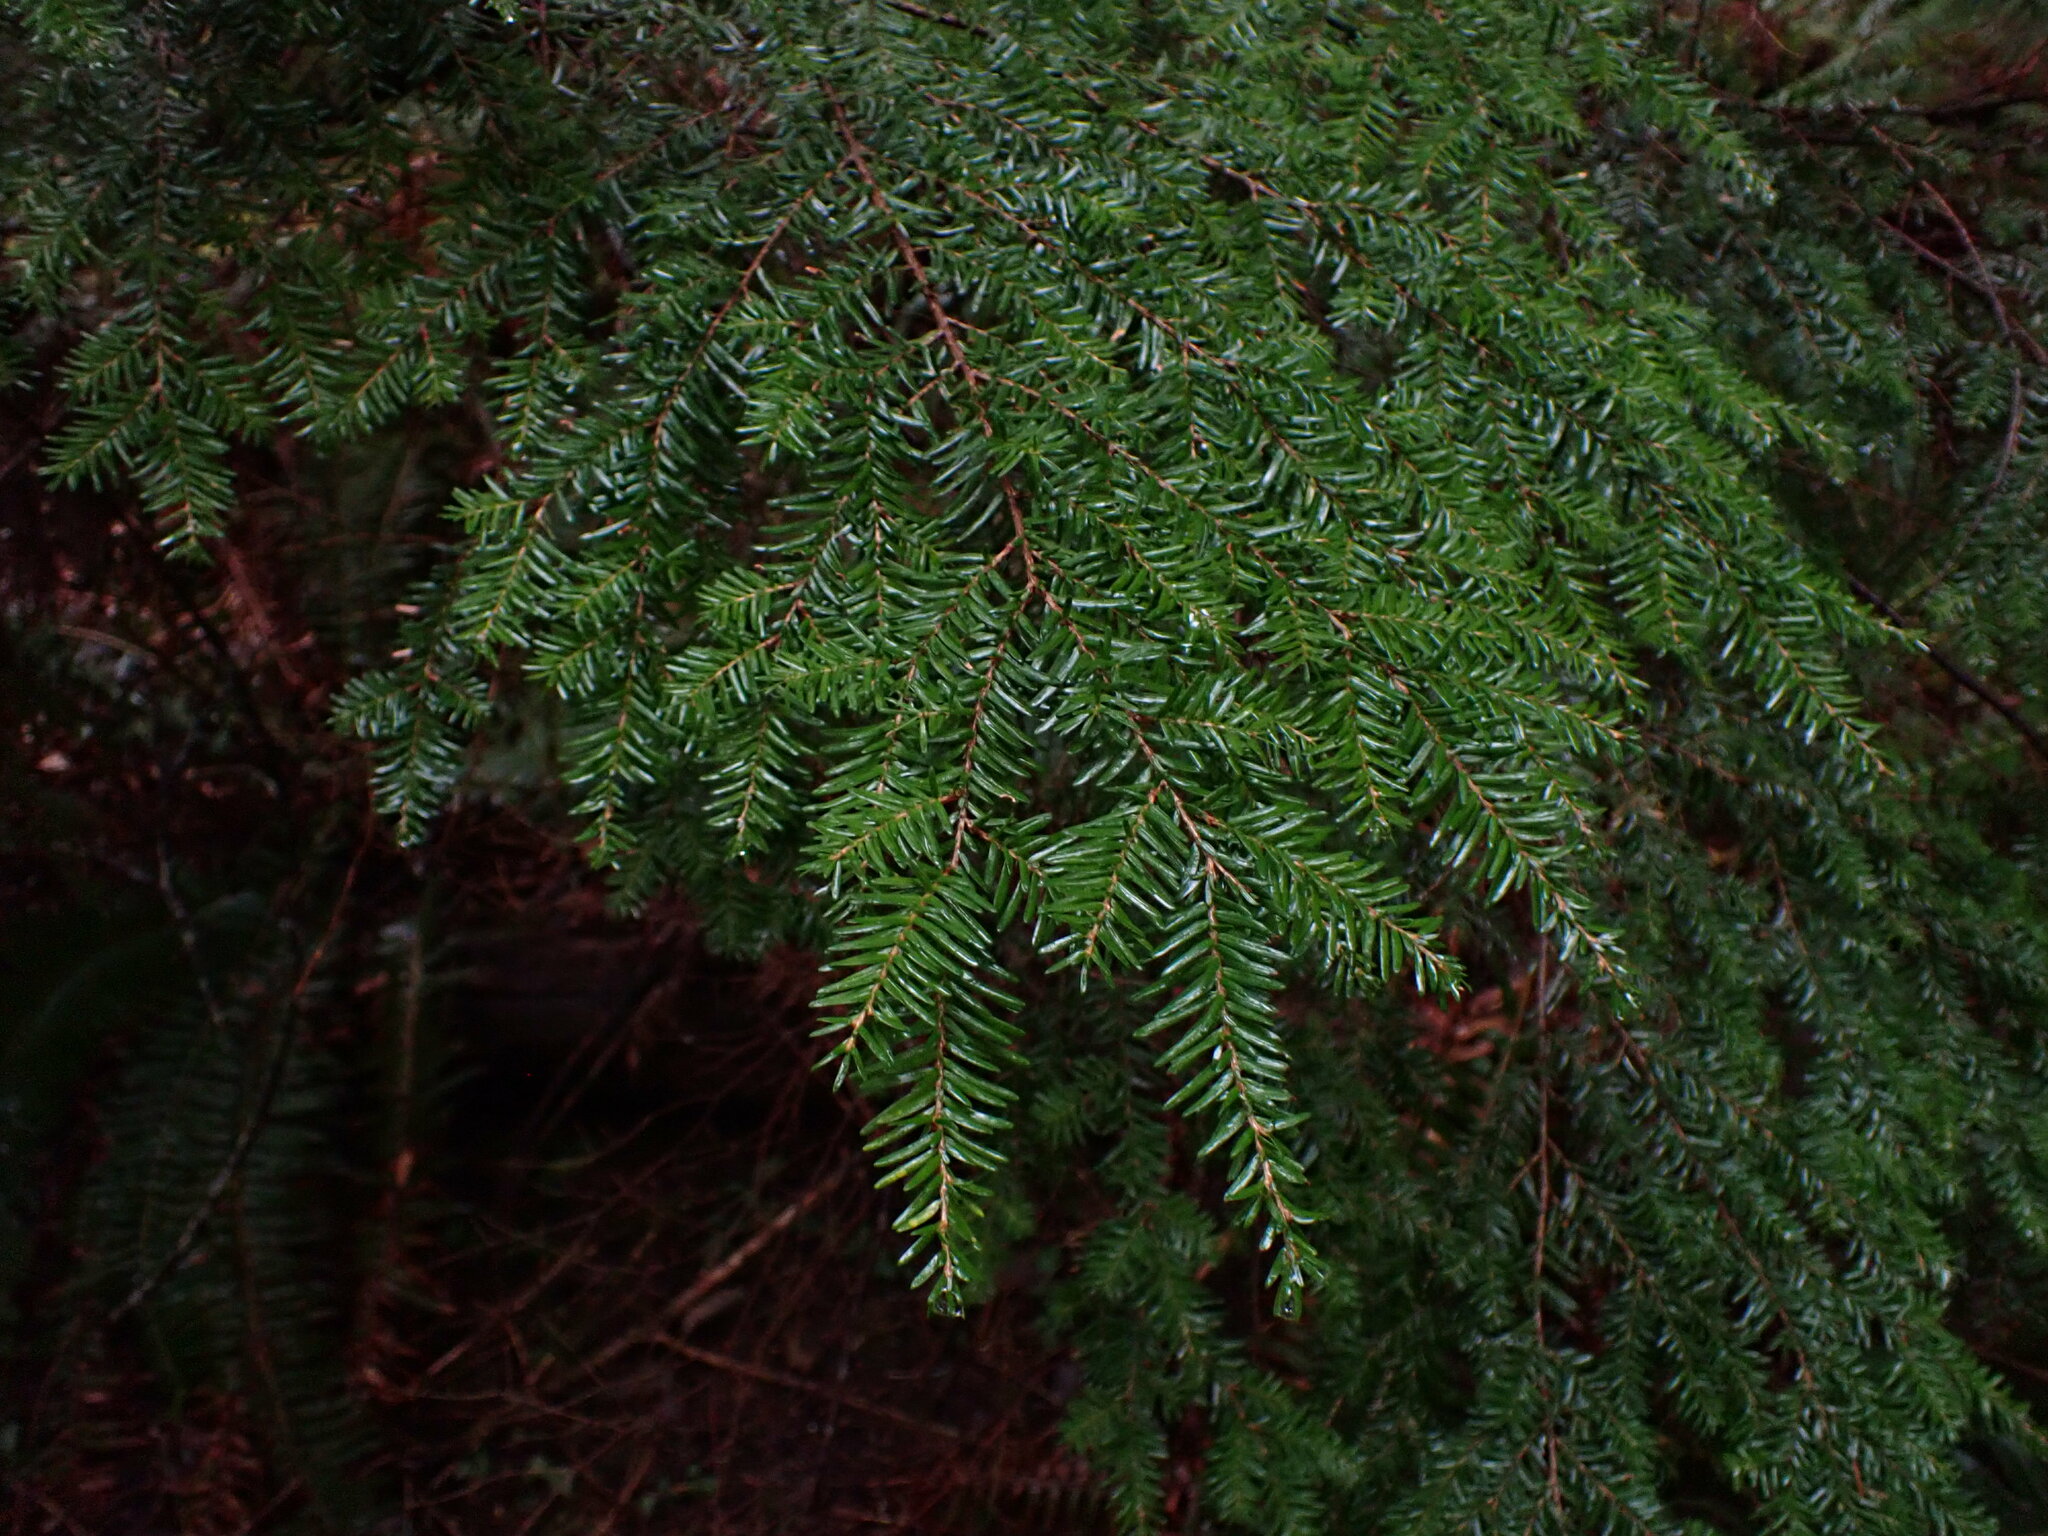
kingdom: Plantae
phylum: Tracheophyta
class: Pinopsida
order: Pinales
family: Pinaceae
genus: Tsuga
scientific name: Tsuga heterophylla
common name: Western hemlock
